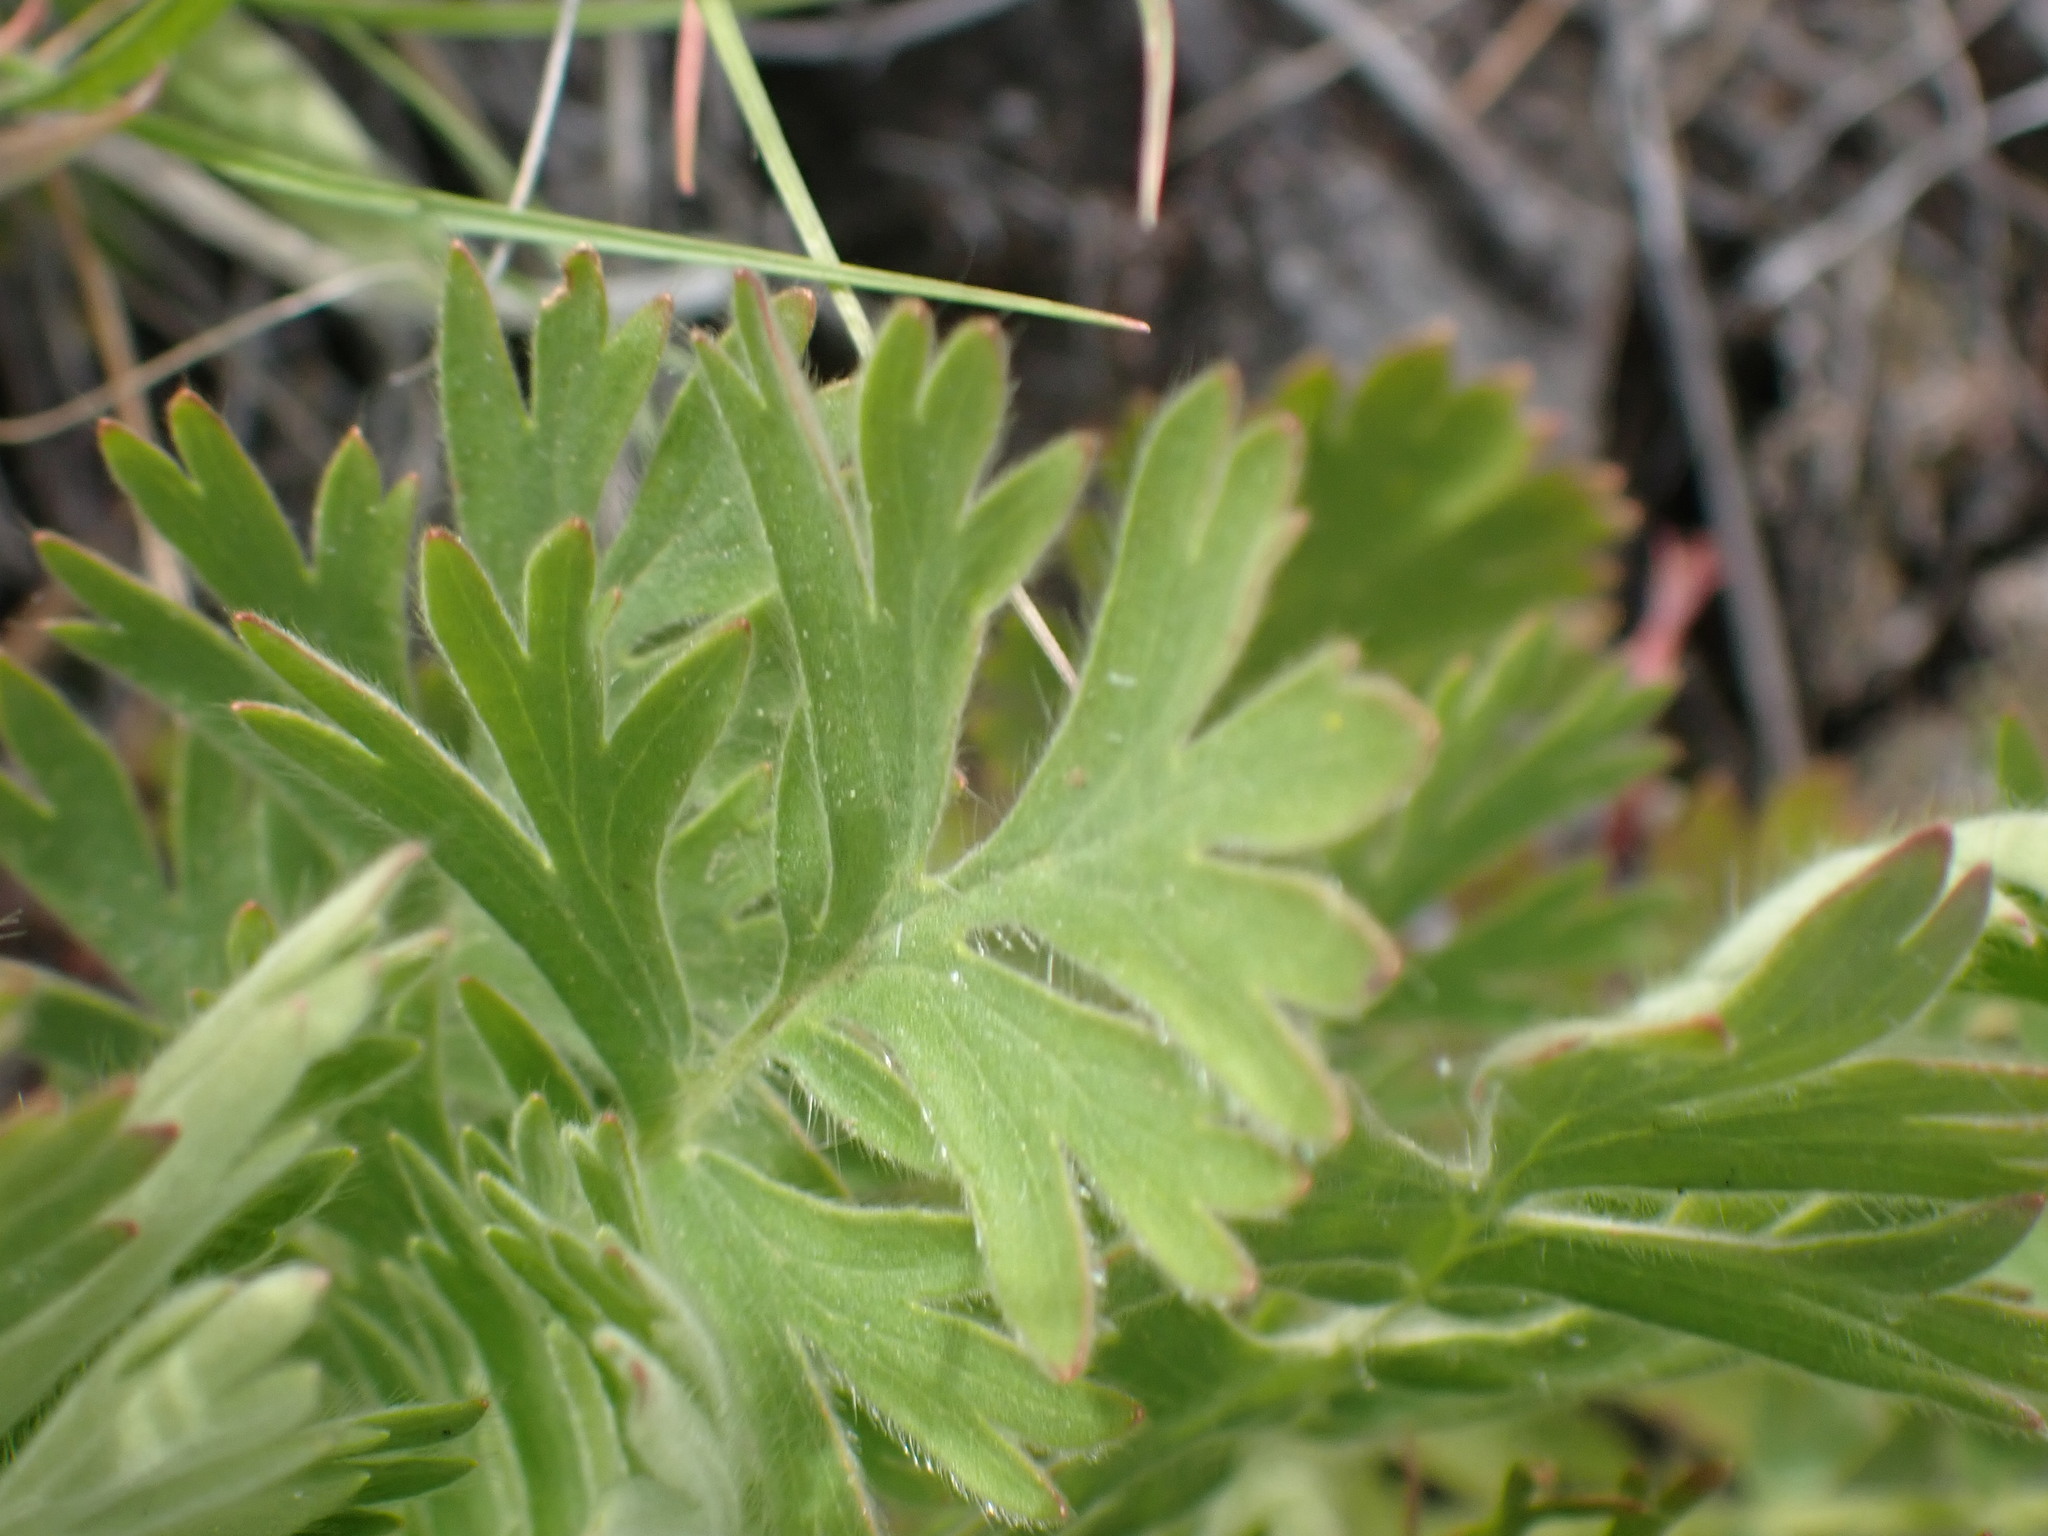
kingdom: Plantae
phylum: Tracheophyta
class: Magnoliopsida
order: Rosales
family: Rosaceae
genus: Geum
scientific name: Geum triflorum
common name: Old man's whiskers
